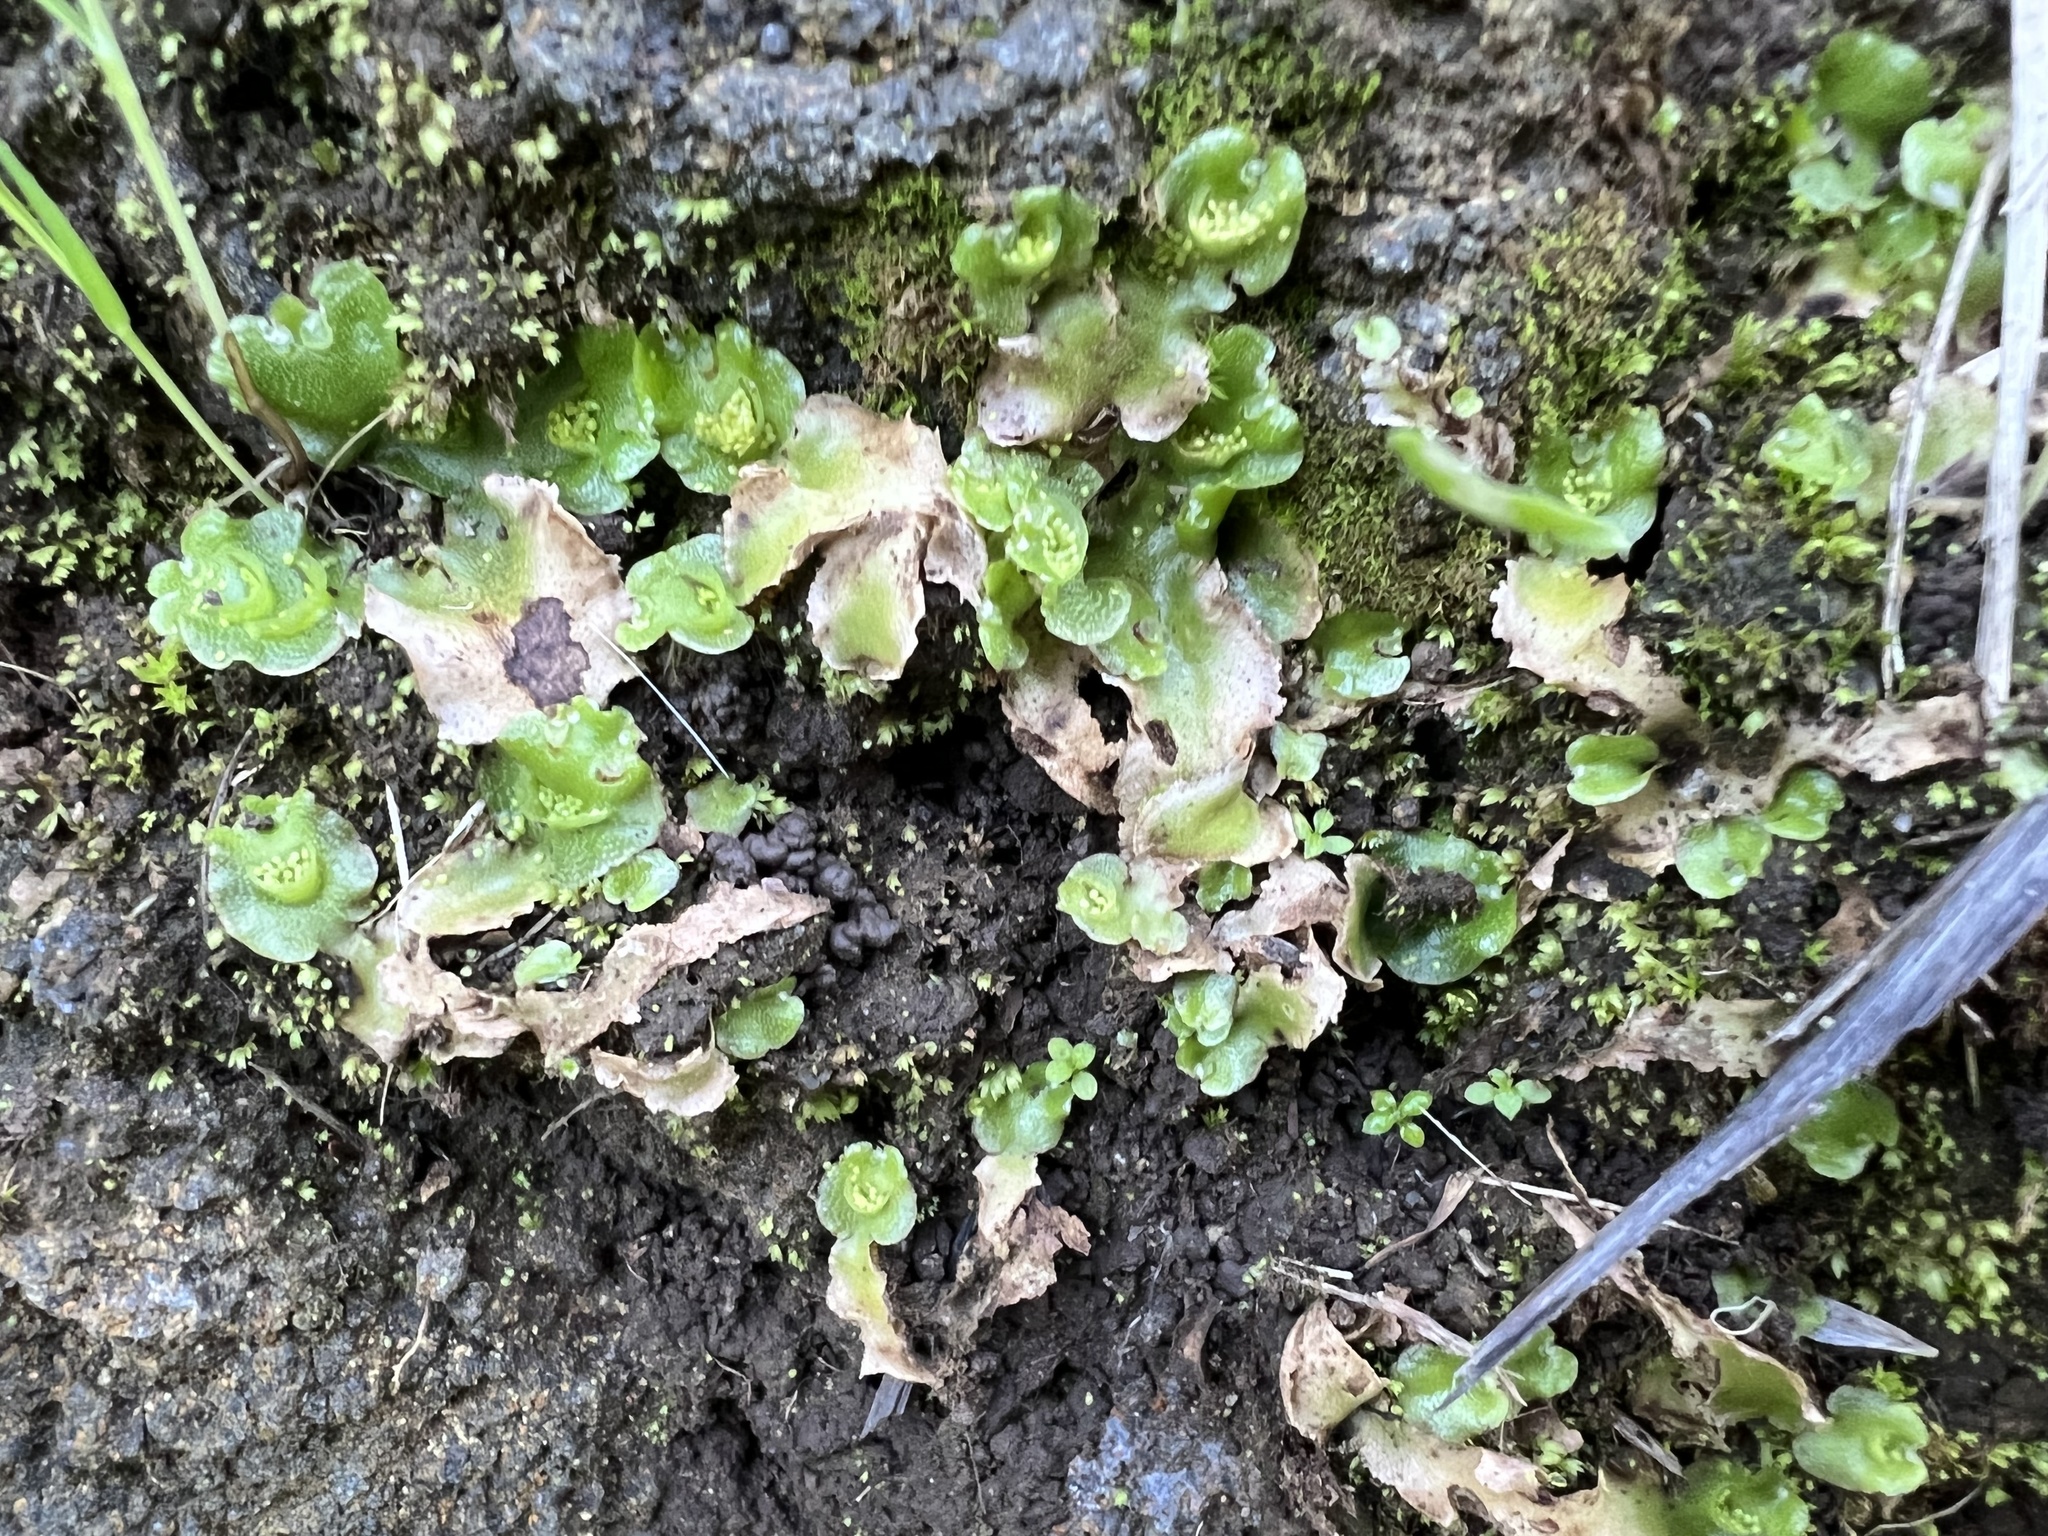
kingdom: Plantae
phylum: Marchantiophyta
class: Marchantiopsida
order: Lunulariales
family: Lunulariaceae
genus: Lunularia
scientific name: Lunularia cruciata
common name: Crescent-cup liverwort
